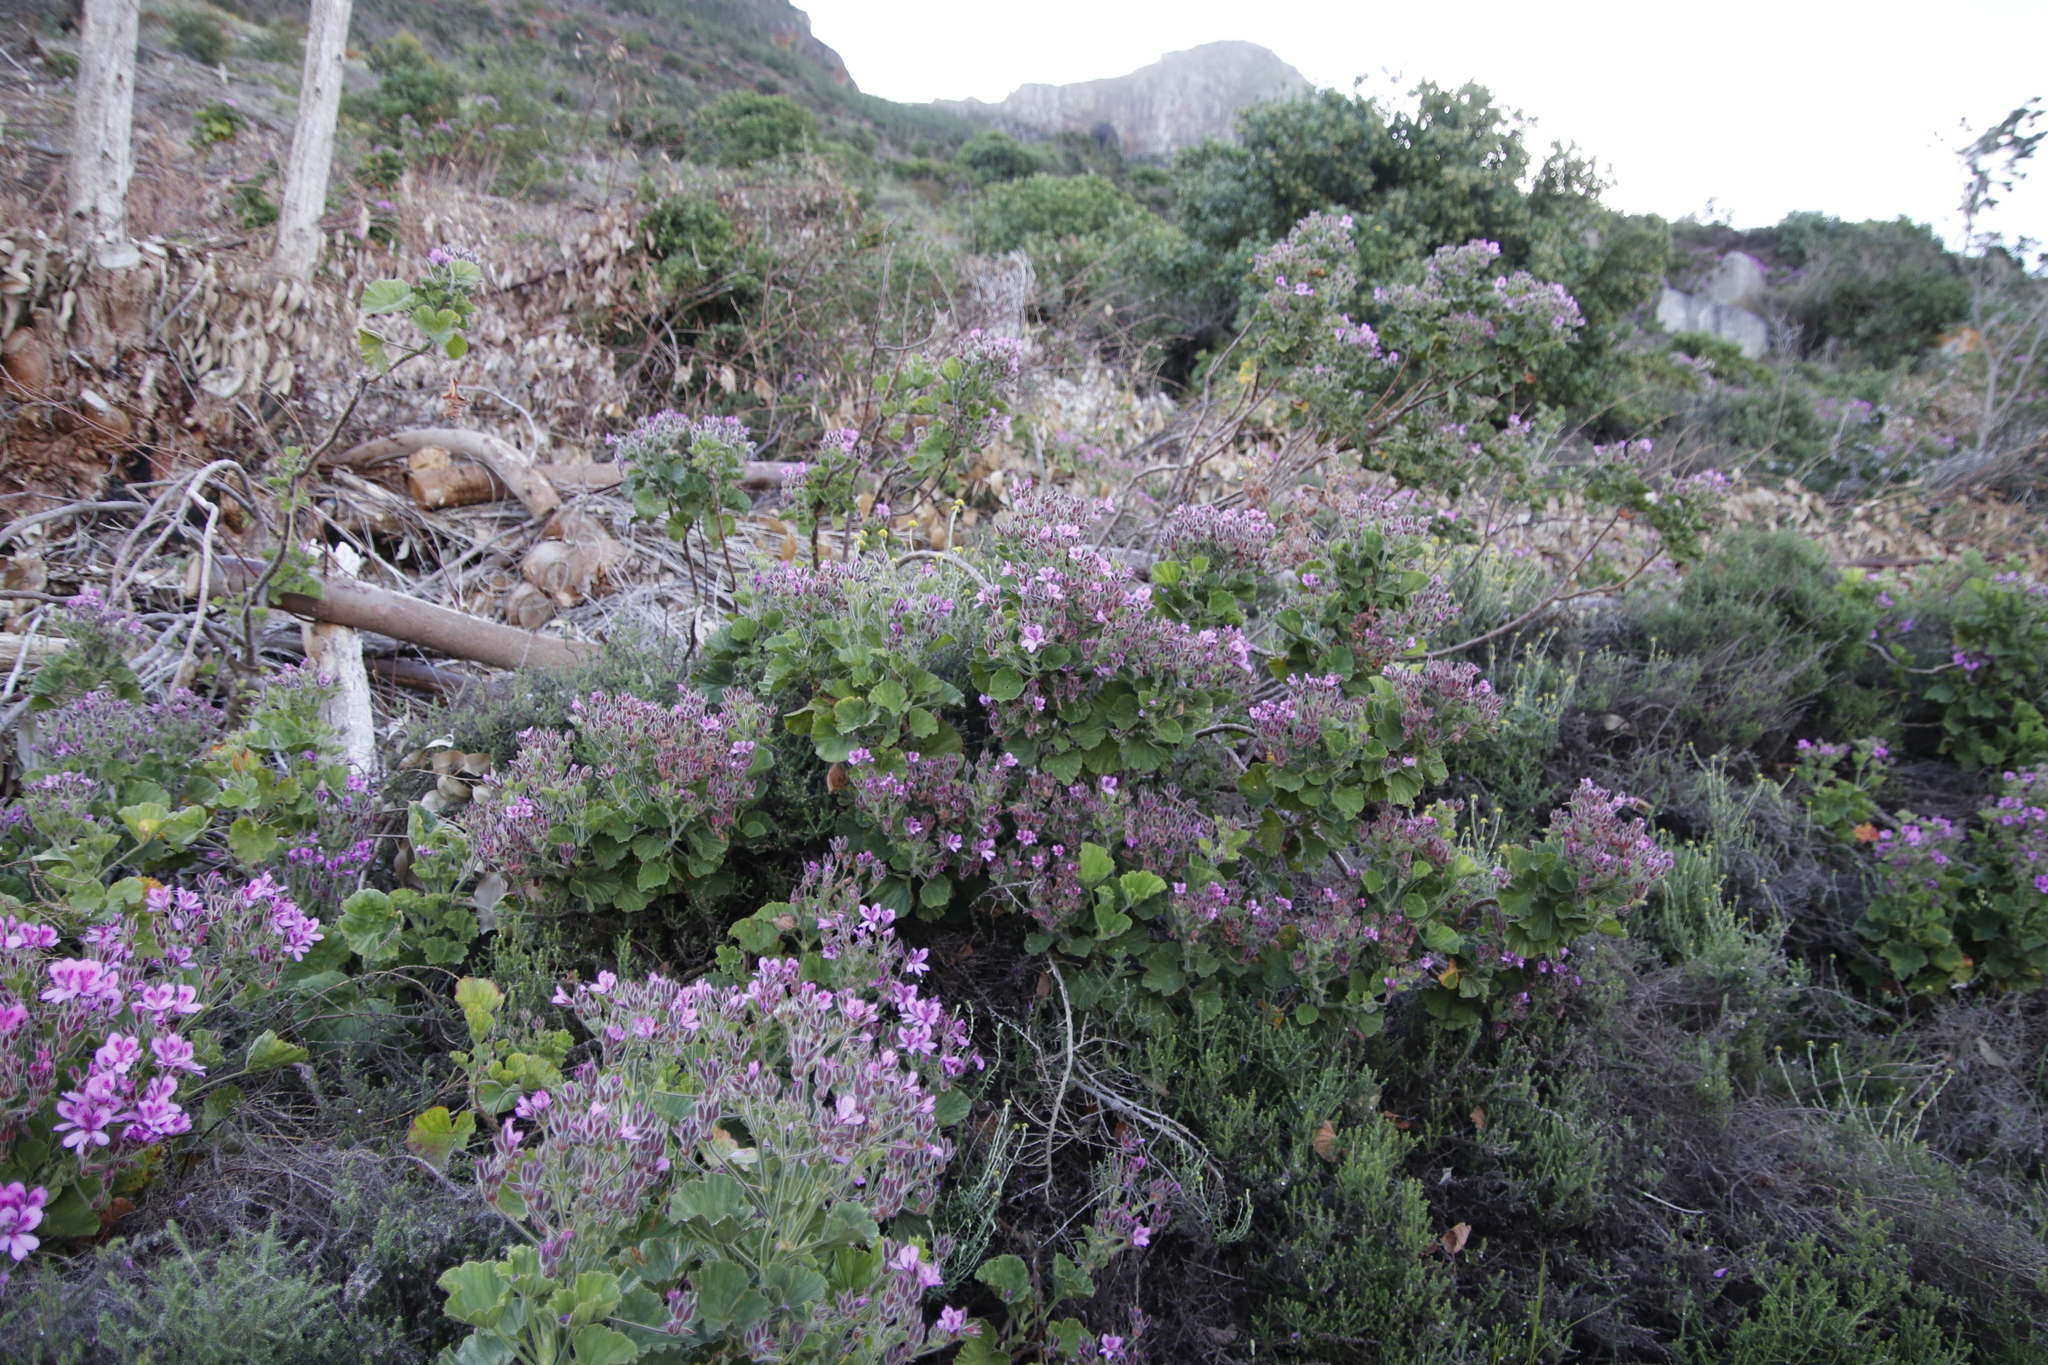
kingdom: Plantae
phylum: Tracheophyta
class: Magnoliopsida
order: Geraniales
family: Geraniaceae
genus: Pelargonium
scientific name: Pelargonium cucullatum
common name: Tree pelargonium
